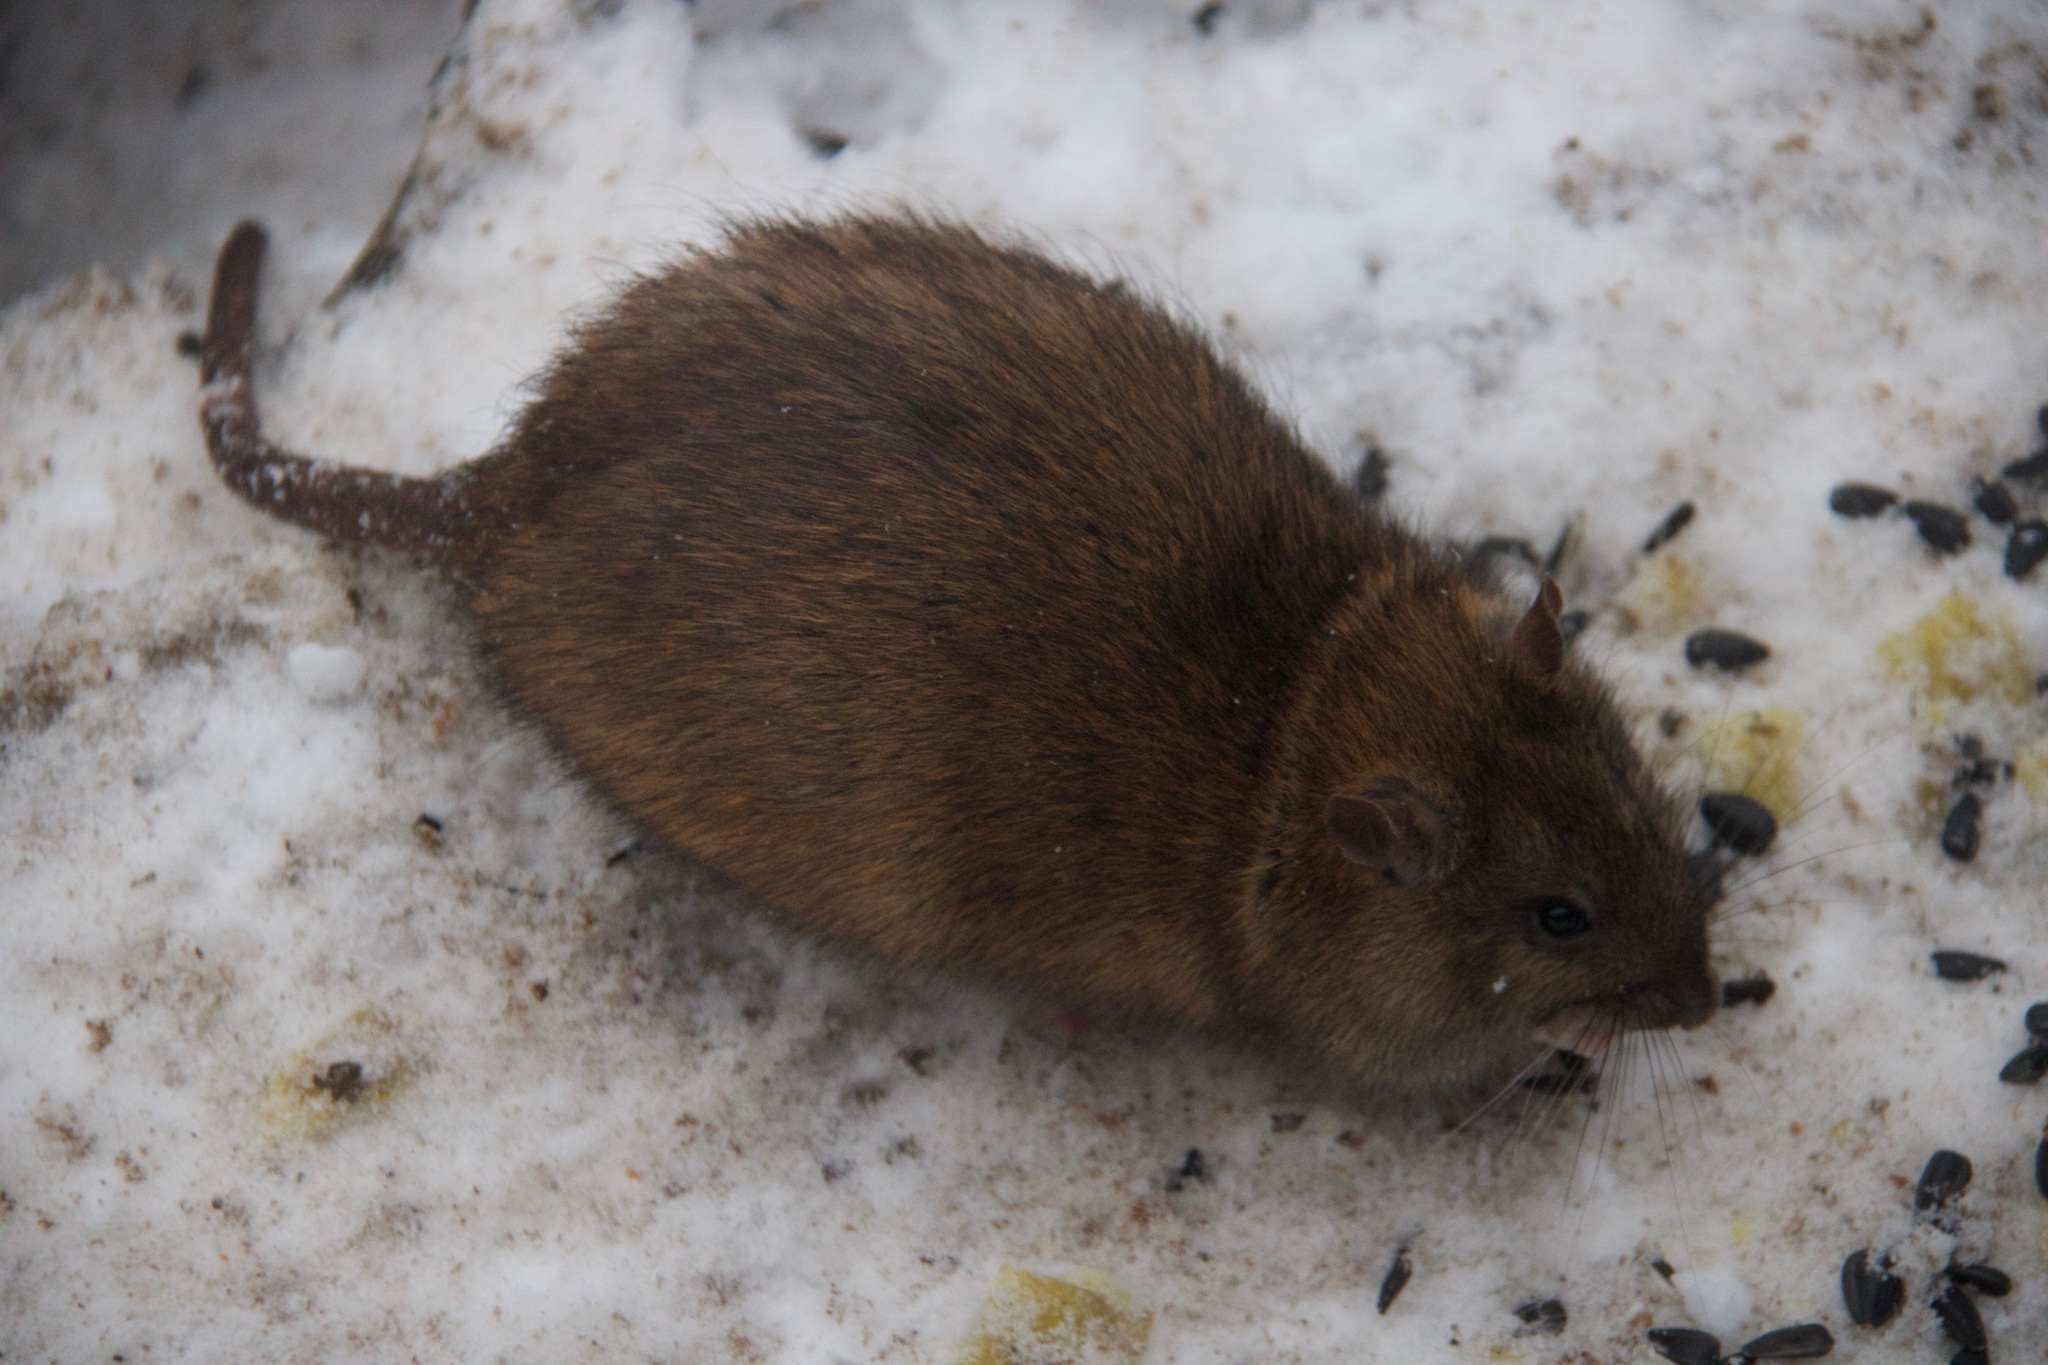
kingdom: Animalia
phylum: Chordata
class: Mammalia
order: Rodentia
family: Muridae
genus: Rattus
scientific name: Rattus norvegicus
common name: Brown rat
